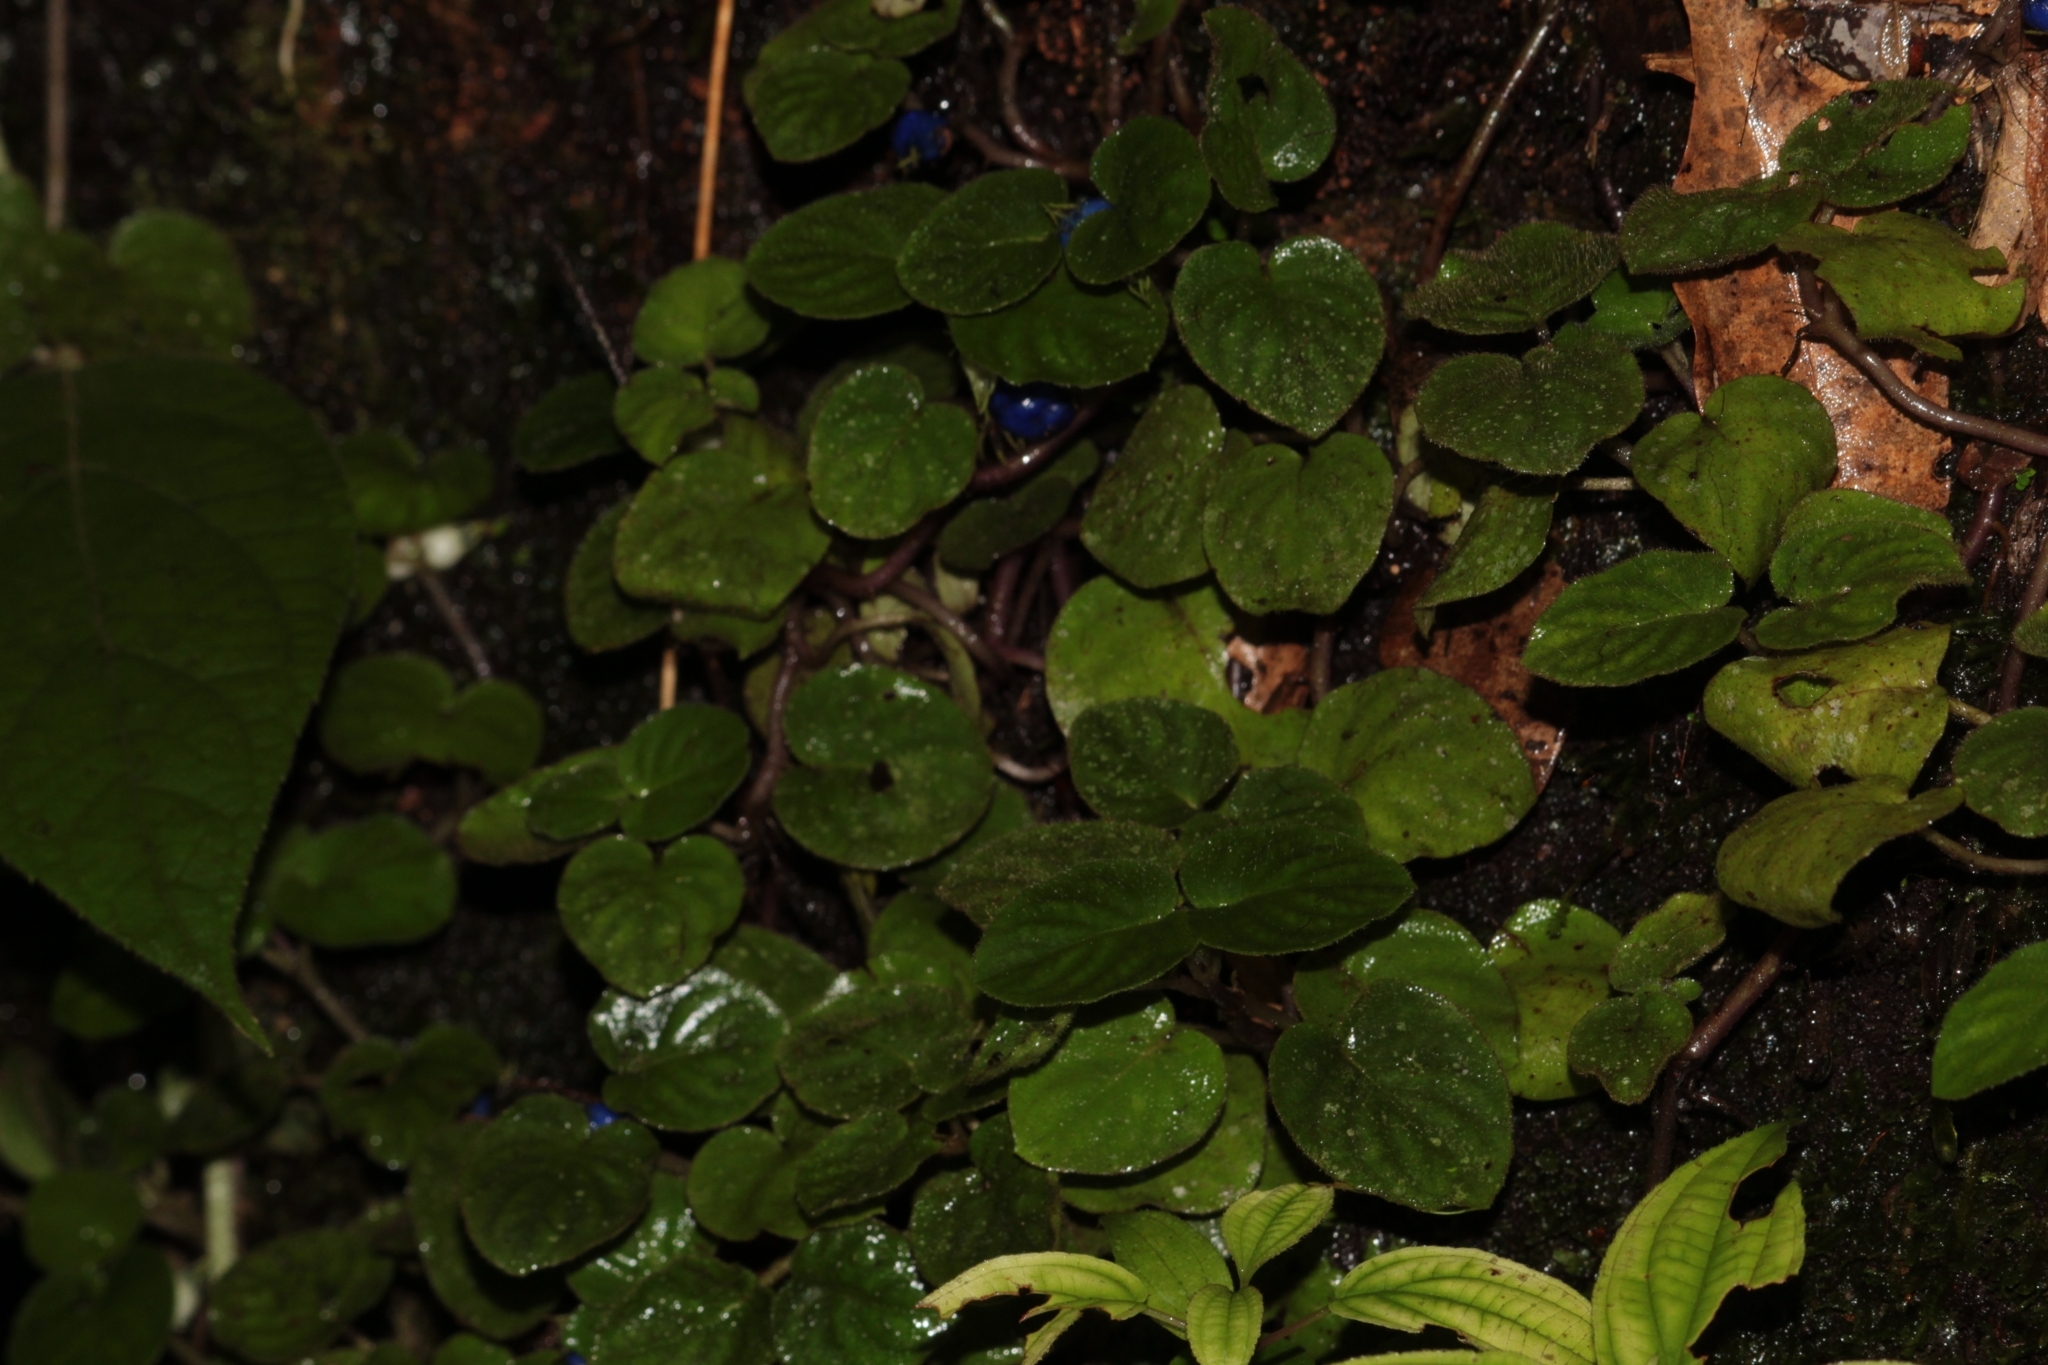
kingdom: Plantae
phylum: Tracheophyta
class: Magnoliopsida
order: Gentianales
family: Rubiaceae
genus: Coccocypselum
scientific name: Coccocypselum geophiloides
